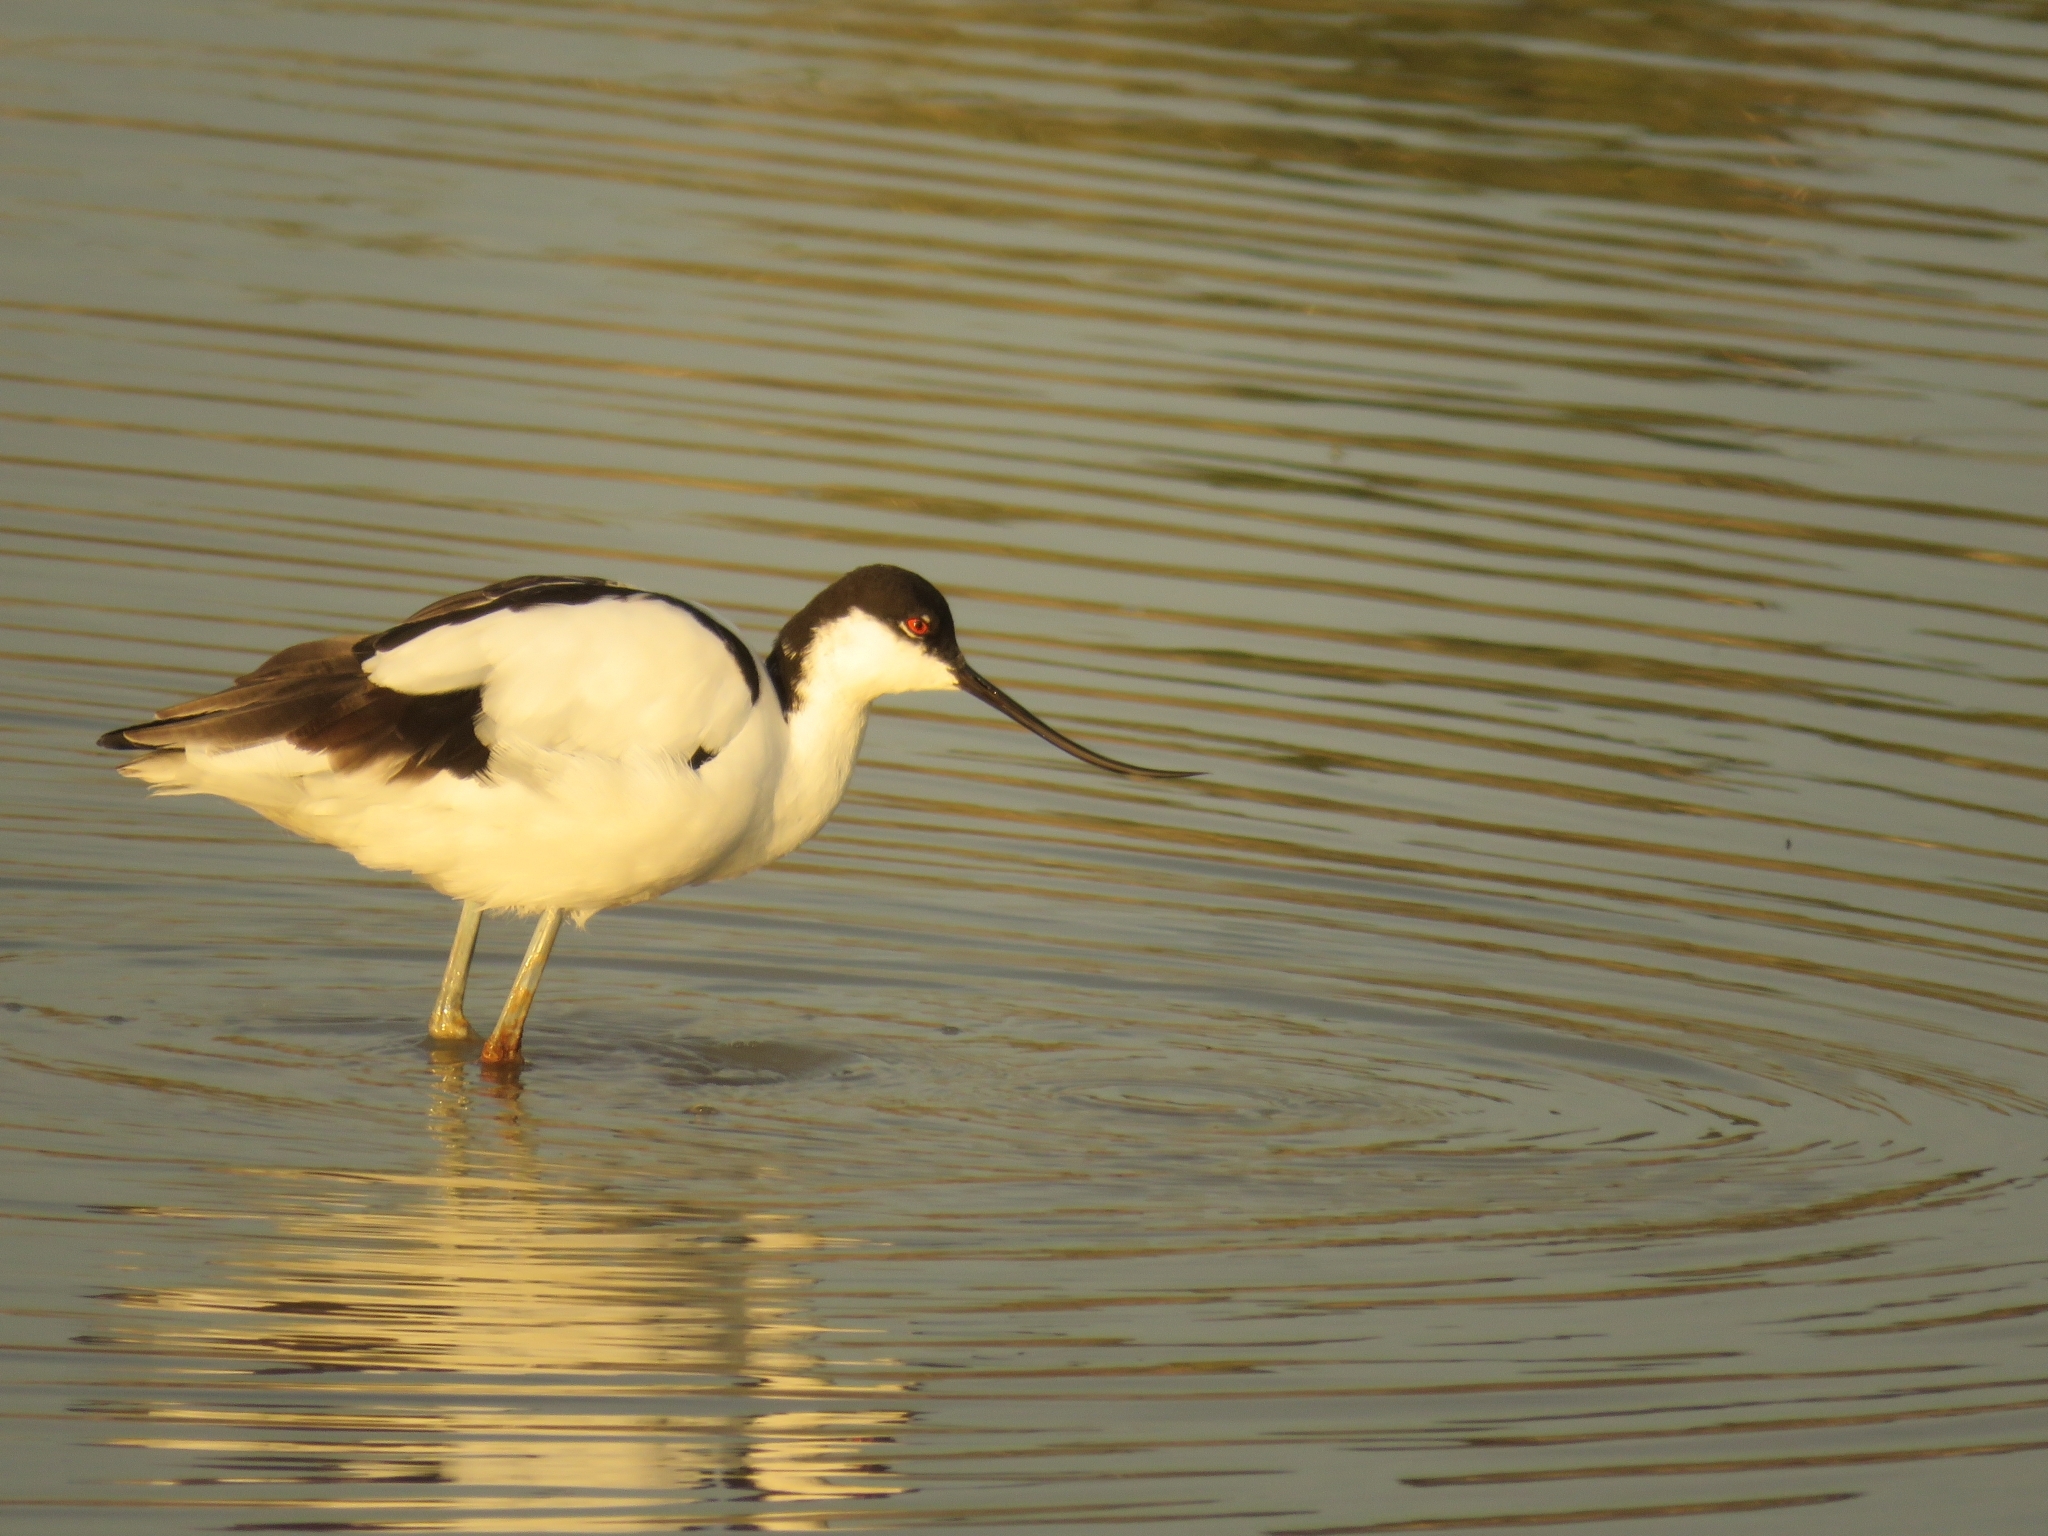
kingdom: Animalia
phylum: Chordata
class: Aves
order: Charadriiformes
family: Recurvirostridae
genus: Recurvirostra
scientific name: Recurvirostra avosetta
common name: Pied avocet
